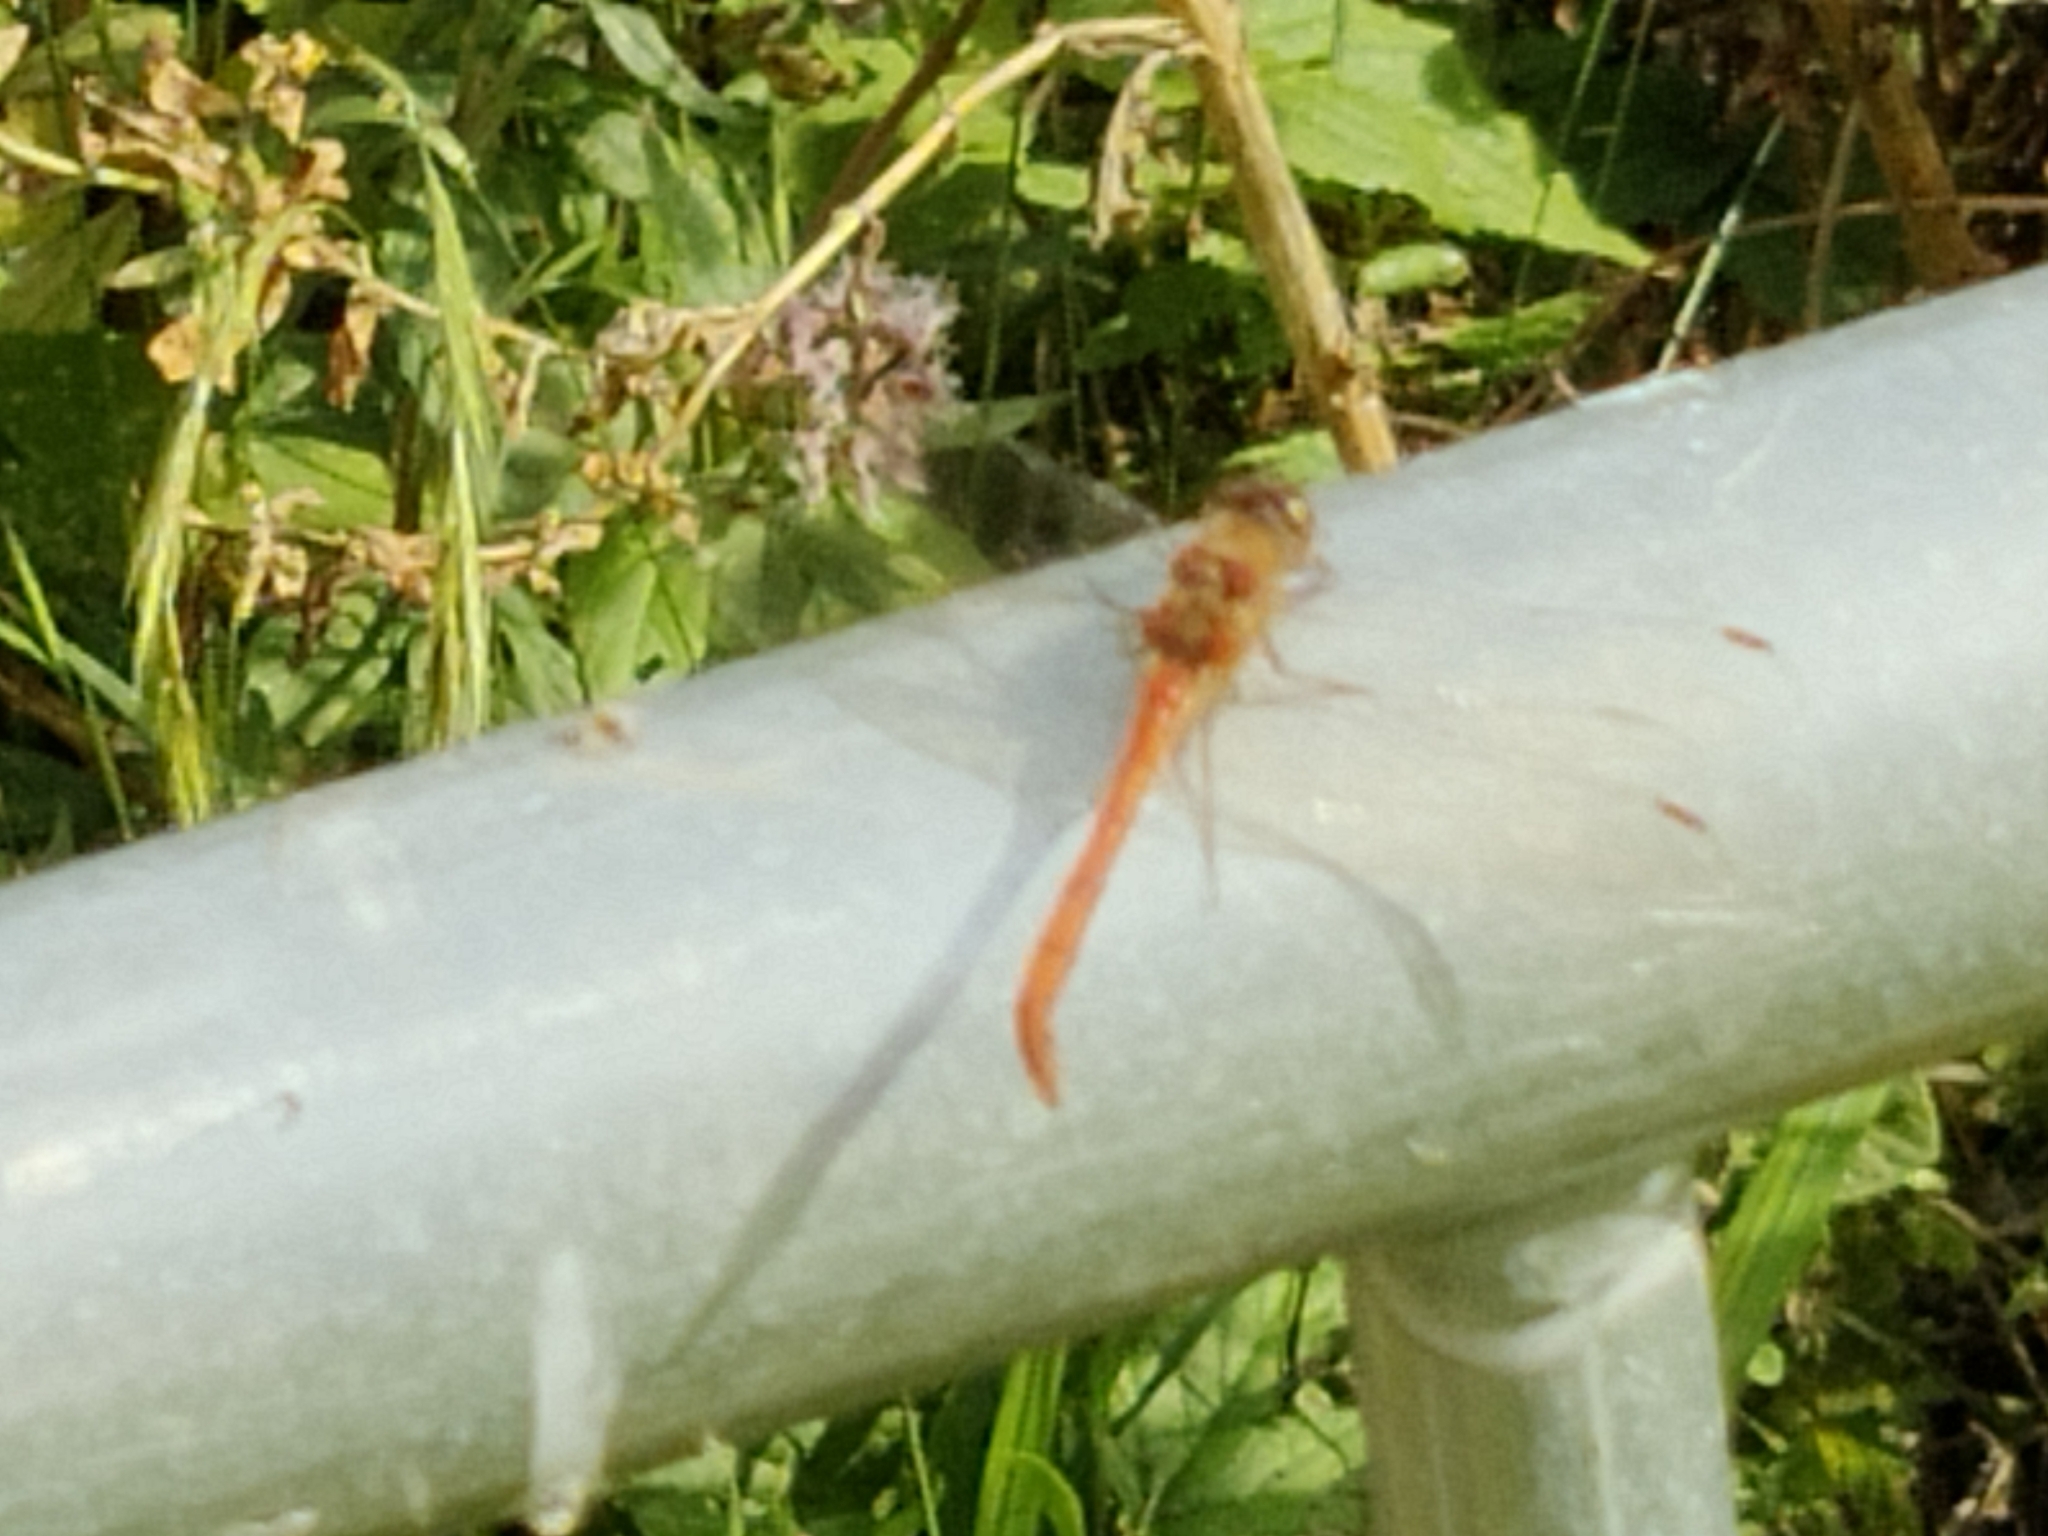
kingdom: Animalia
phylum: Arthropoda
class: Insecta
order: Odonata
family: Libellulidae
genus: Sympetrum
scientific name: Sympetrum
